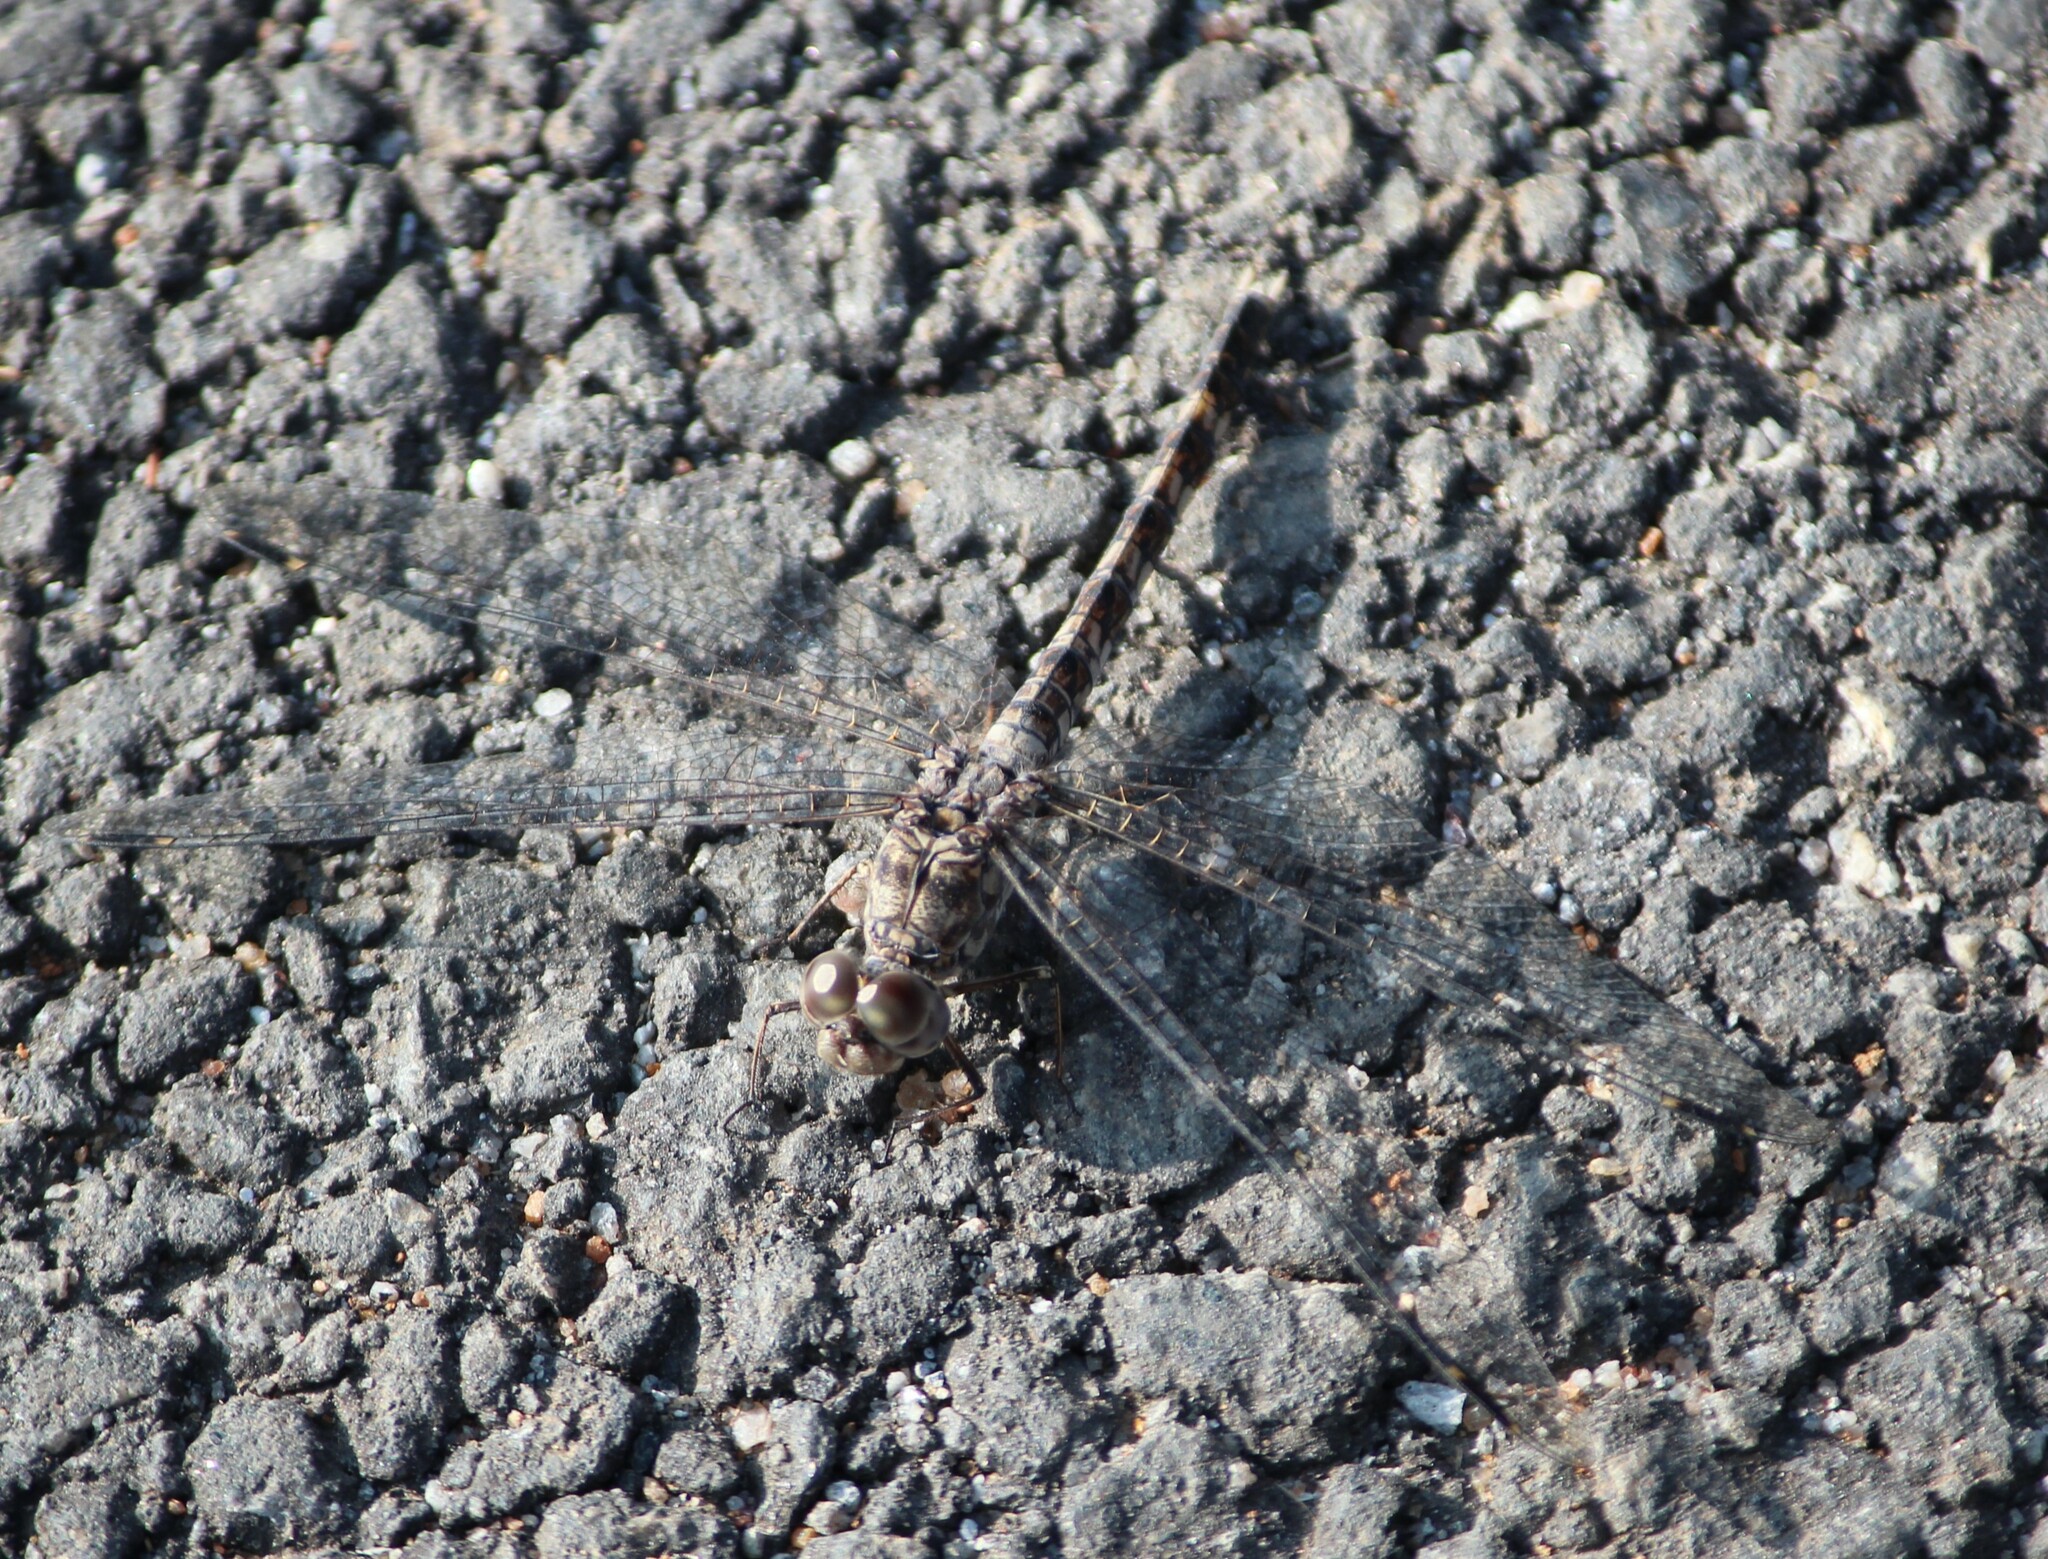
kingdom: Animalia
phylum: Arthropoda
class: Insecta
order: Odonata
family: Libellulidae
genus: Bradinopyga
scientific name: Bradinopyga geminata
